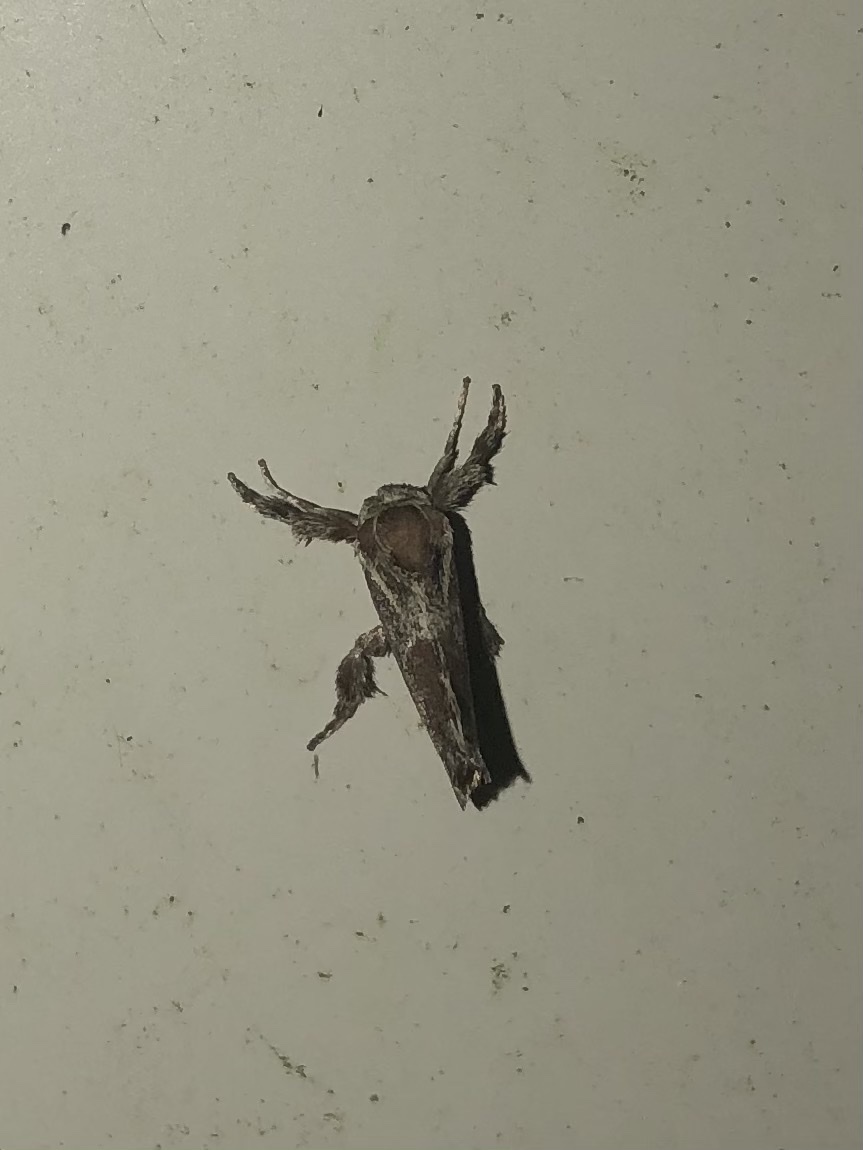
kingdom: Animalia
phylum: Arthropoda
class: Insecta
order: Lepidoptera
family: Limacodidae
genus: Adoneta
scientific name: Adoneta spinuloides
